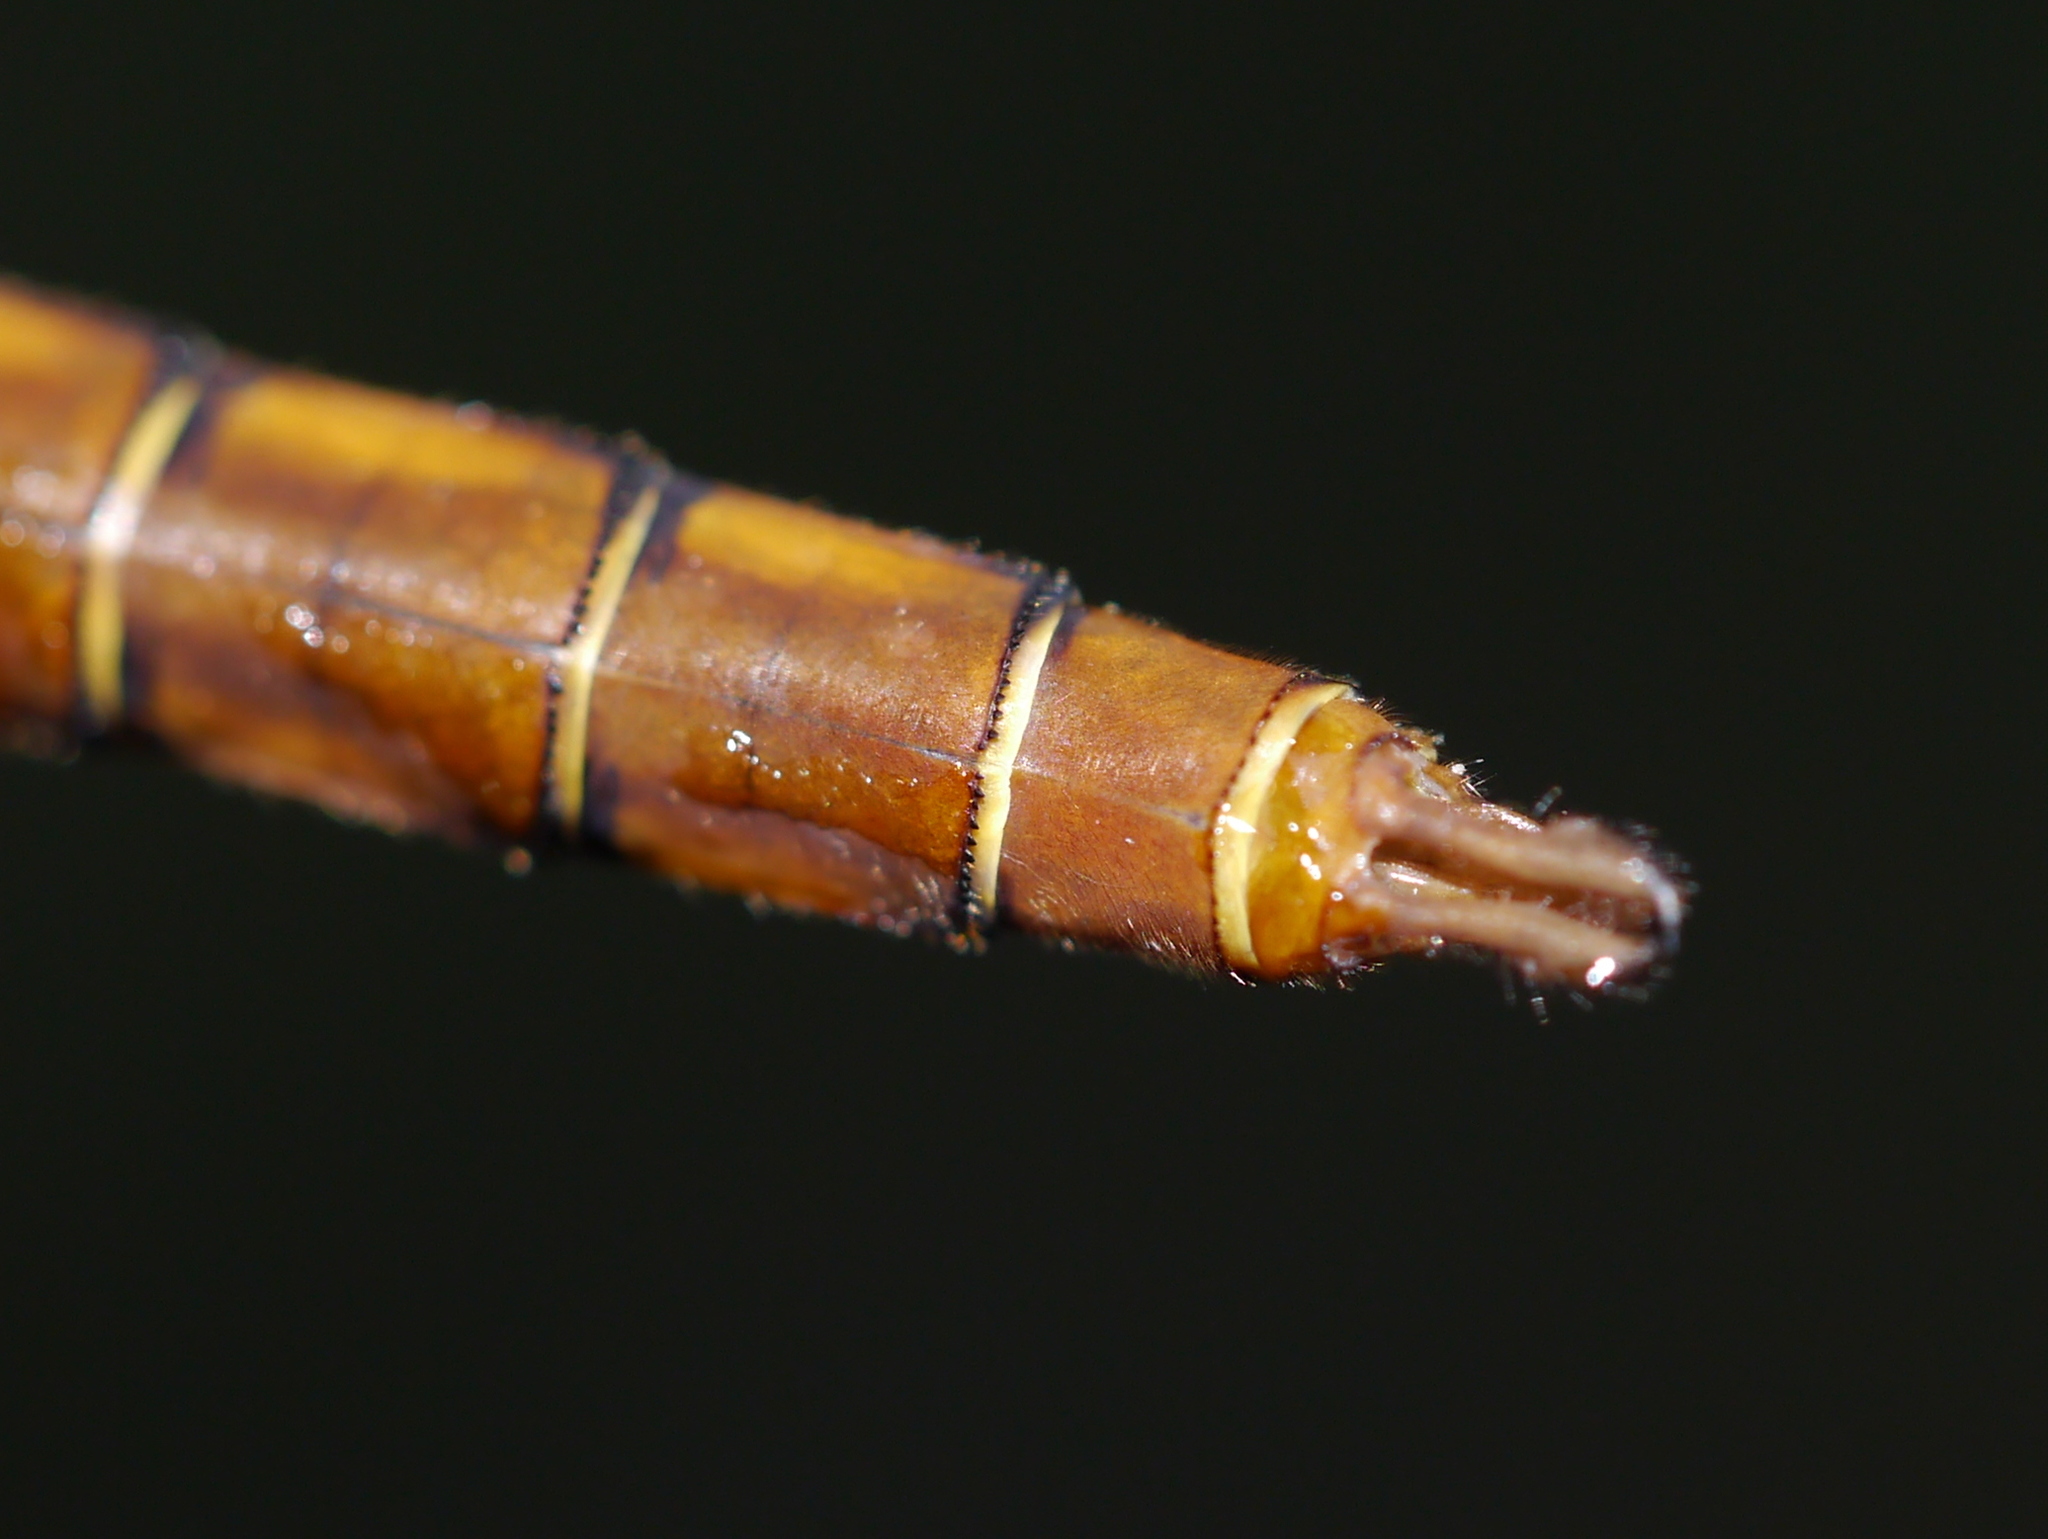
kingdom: Animalia
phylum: Arthropoda
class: Insecta
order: Odonata
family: Corduliidae
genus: Neurocordulia
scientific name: Neurocordulia virginiensis
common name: Cinnamon shadowdragon
